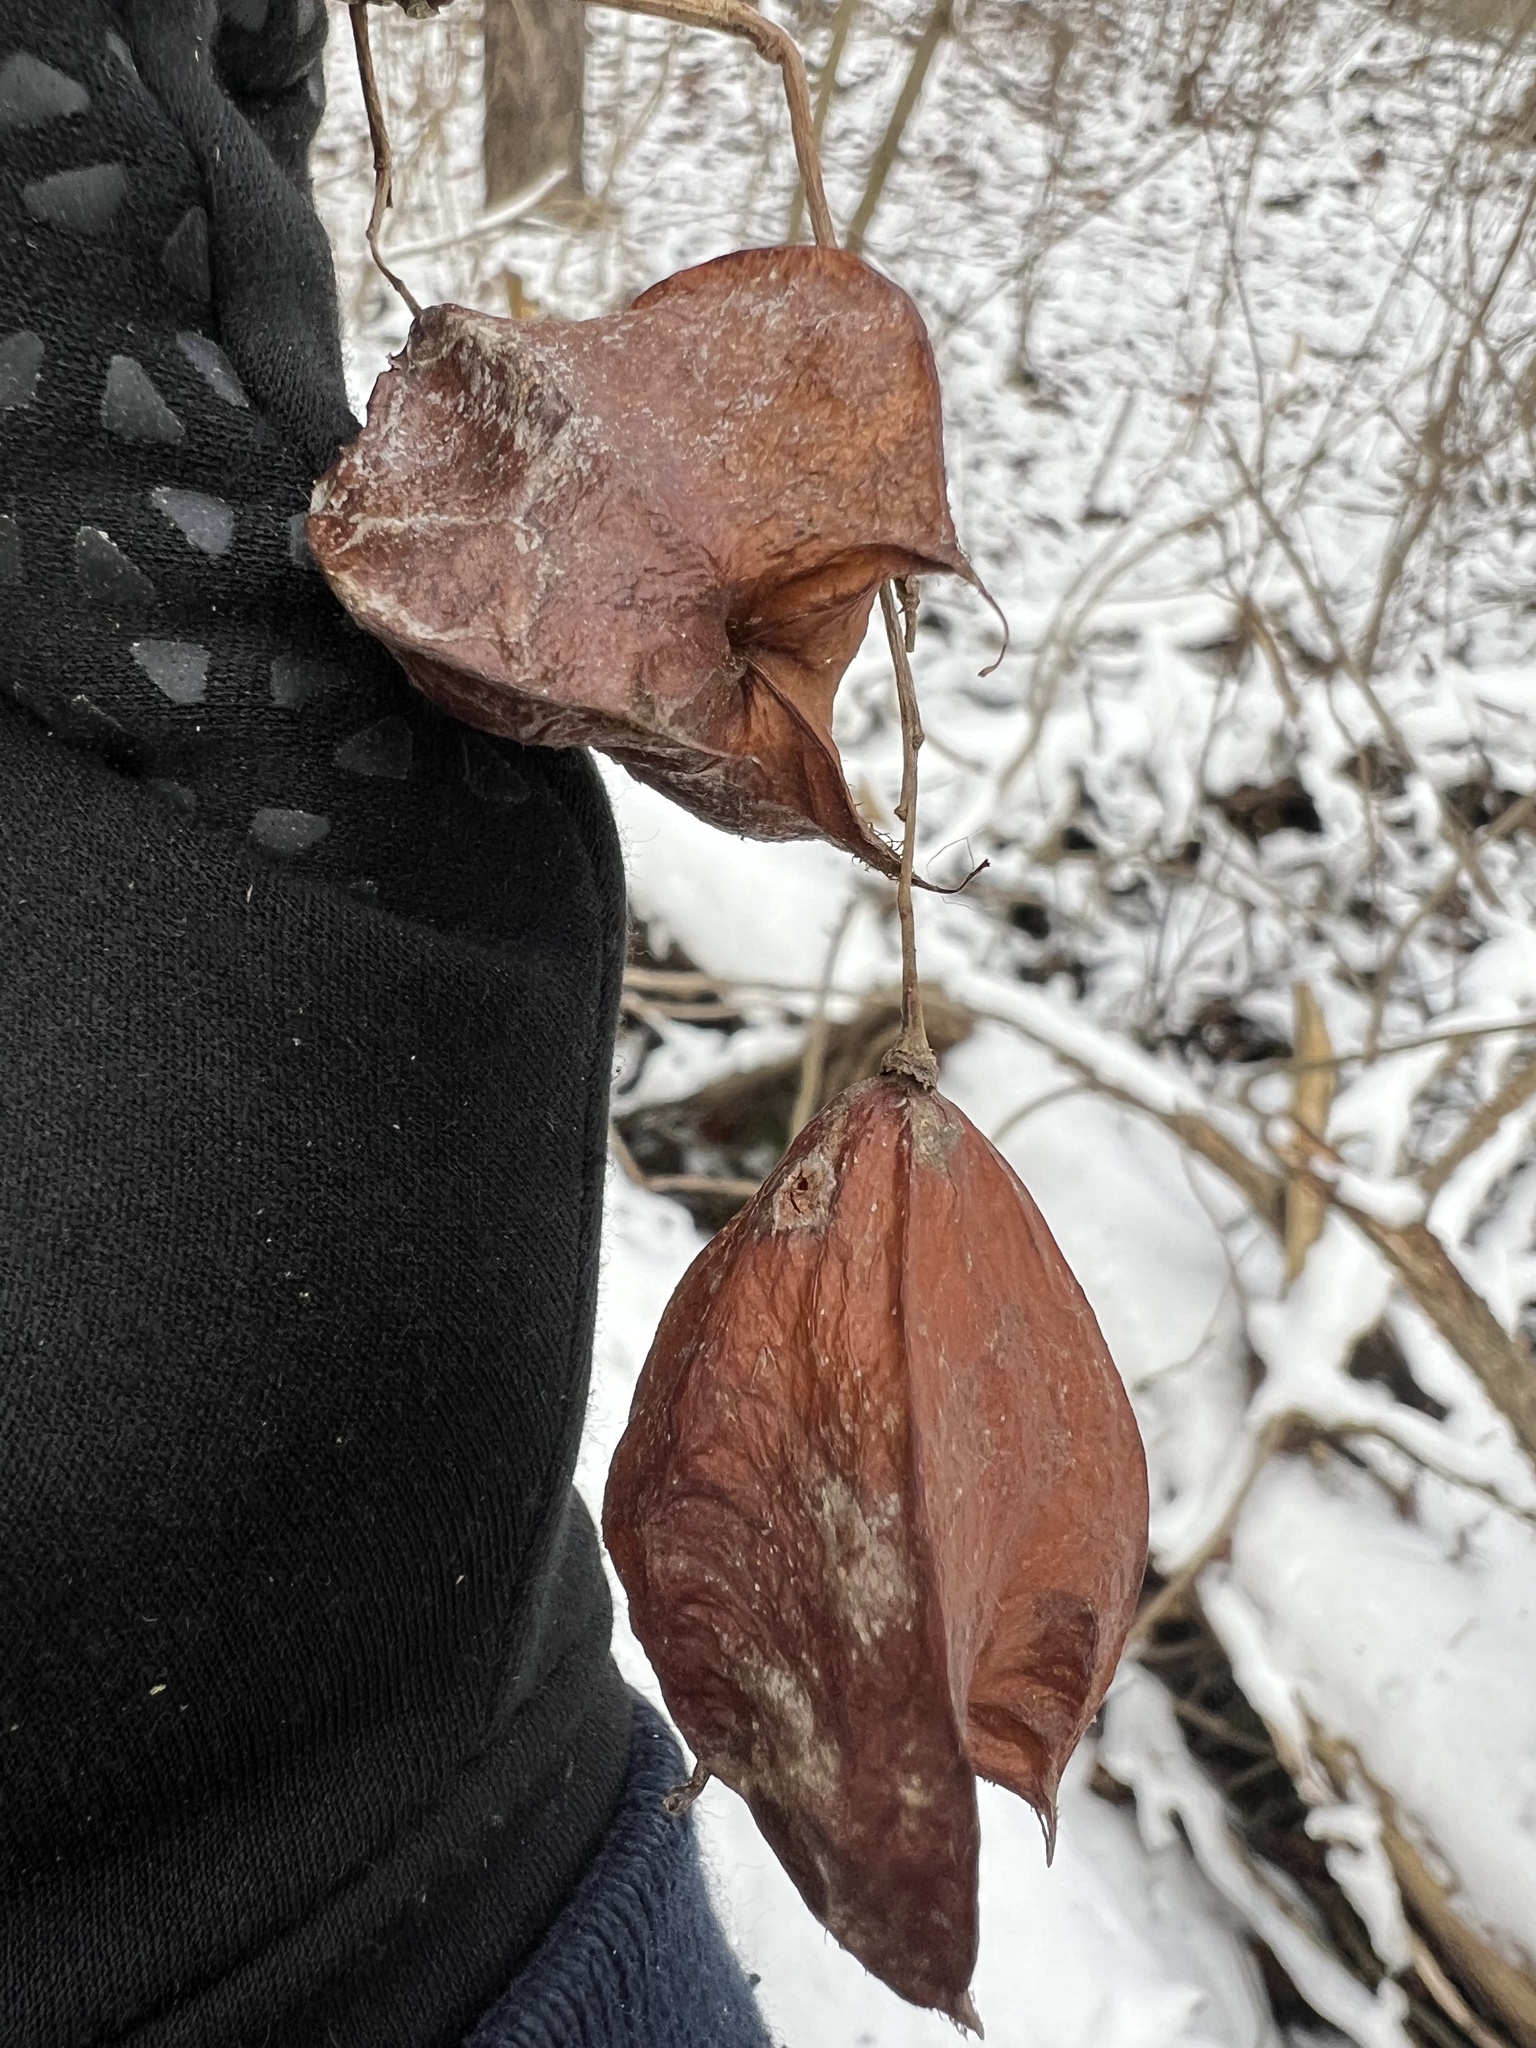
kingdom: Plantae
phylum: Tracheophyta
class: Magnoliopsida
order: Crossosomatales
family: Staphyleaceae
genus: Staphylea
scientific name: Staphylea trifolia
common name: American bladdernut
